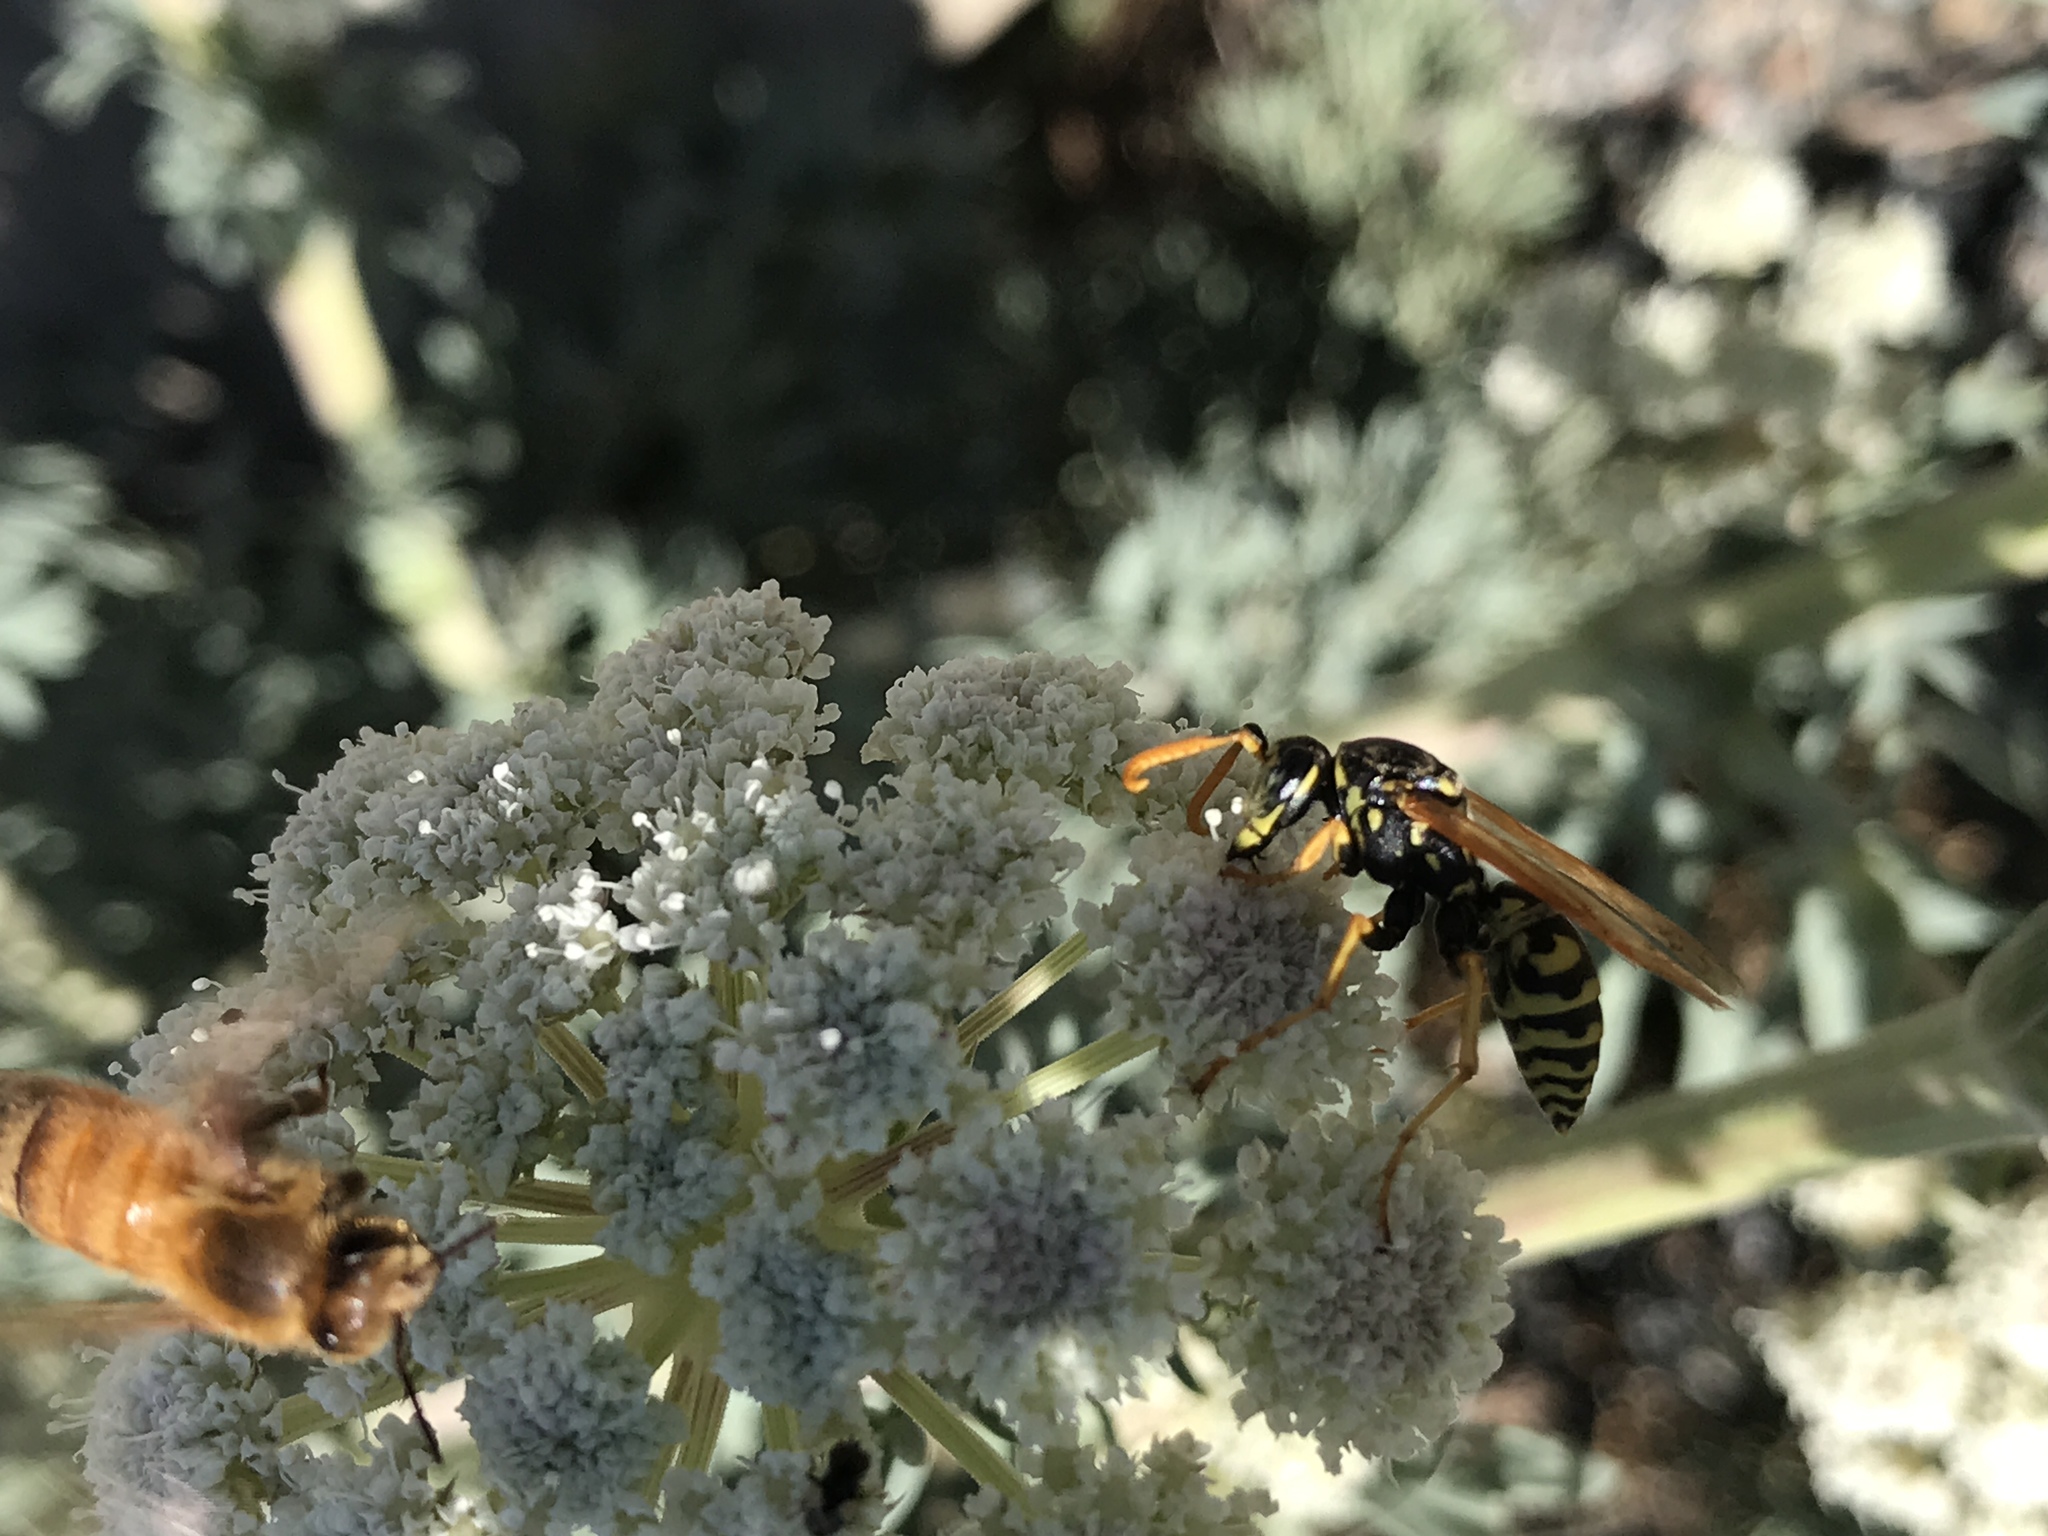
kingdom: Animalia
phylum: Arthropoda
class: Insecta
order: Hymenoptera
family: Eumenidae
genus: Polistes
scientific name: Polistes dominula
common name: Paper wasp
